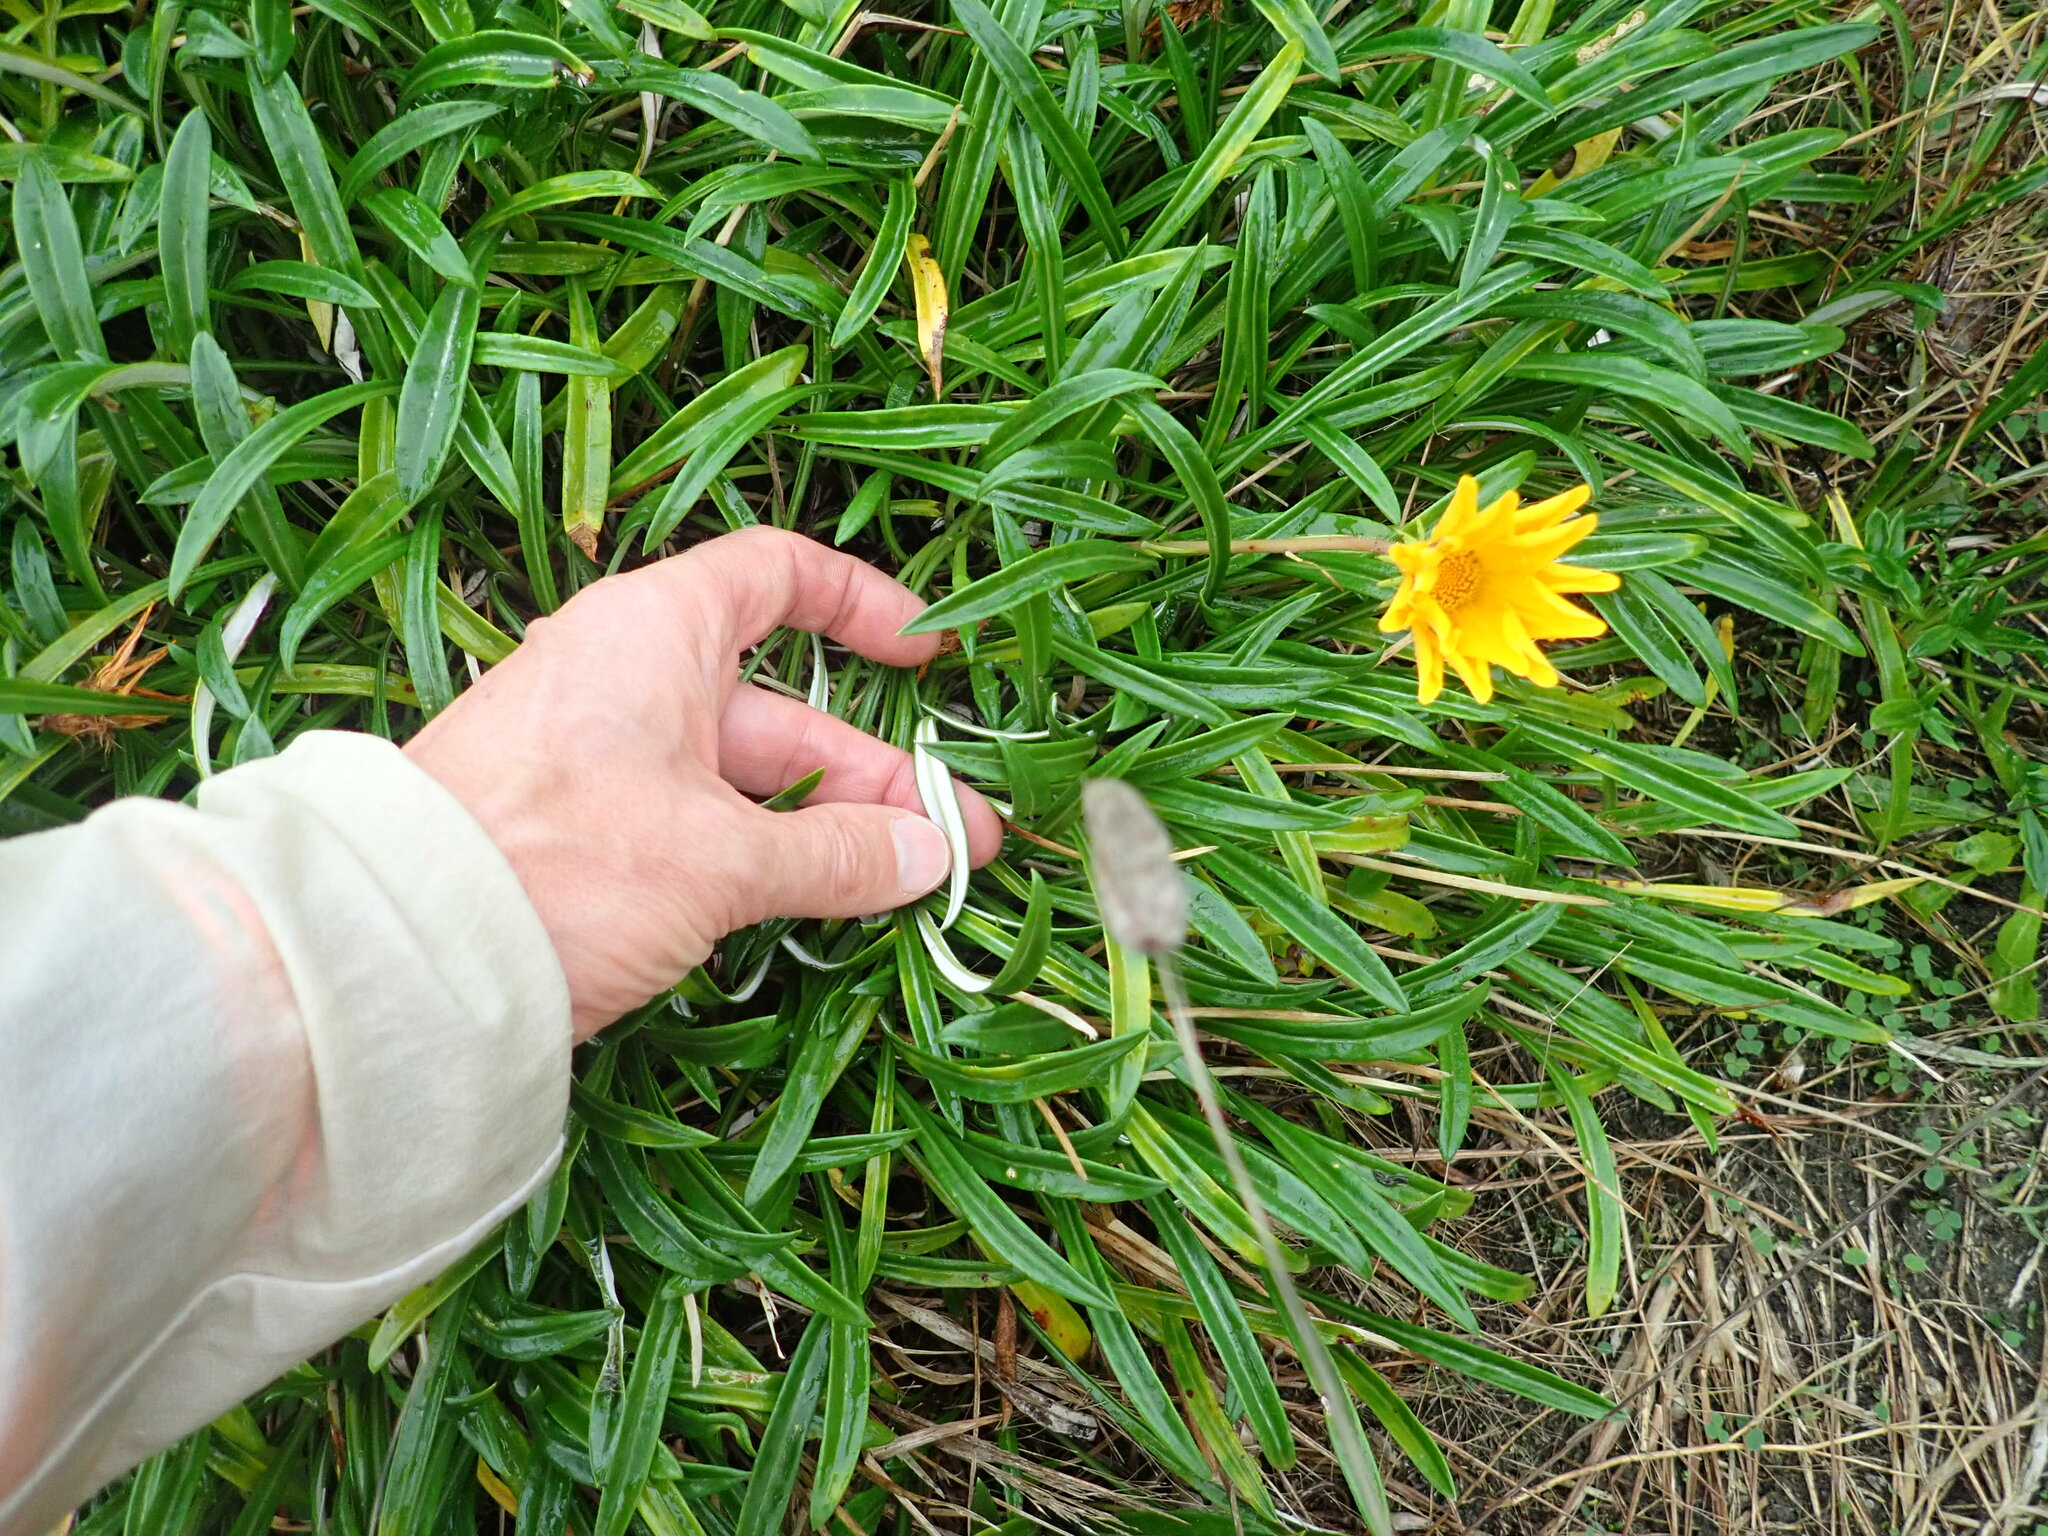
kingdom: Plantae
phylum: Tracheophyta
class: Magnoliopsida
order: Asterales
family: Asteraceae
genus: Gazania
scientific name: Gazania splendens
